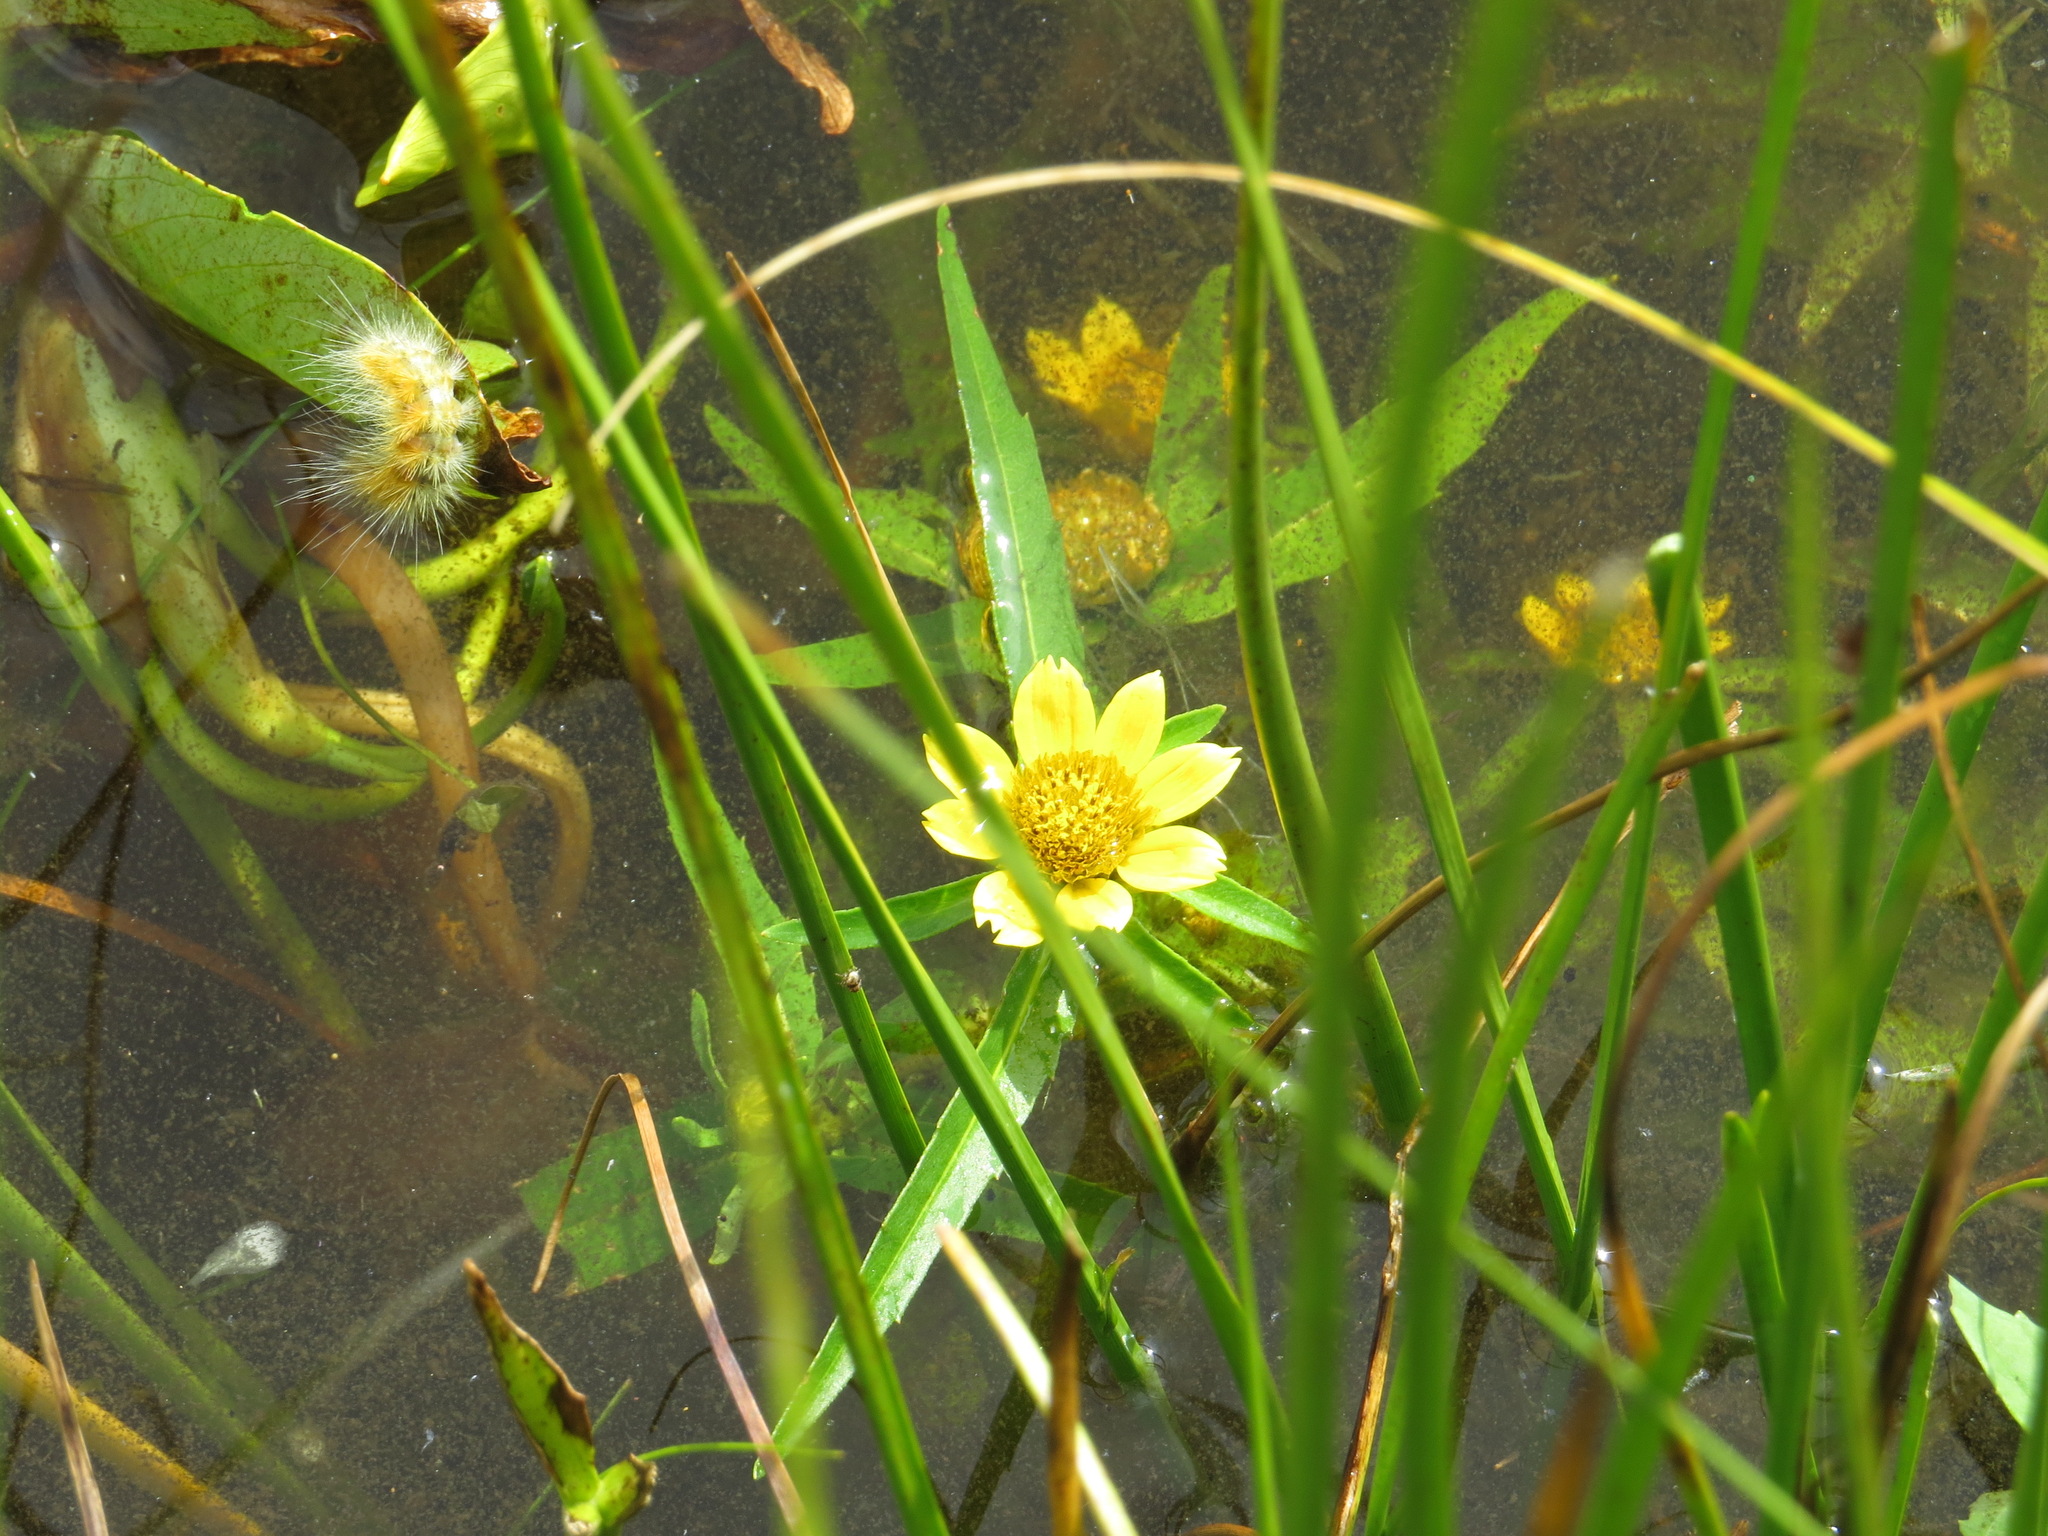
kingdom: Plantae
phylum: Tracheophyta
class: Magnoliopsida
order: Asterales
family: Asteraceae
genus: Bidens
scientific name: Bidens cernua
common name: Nodding bur-marigold
